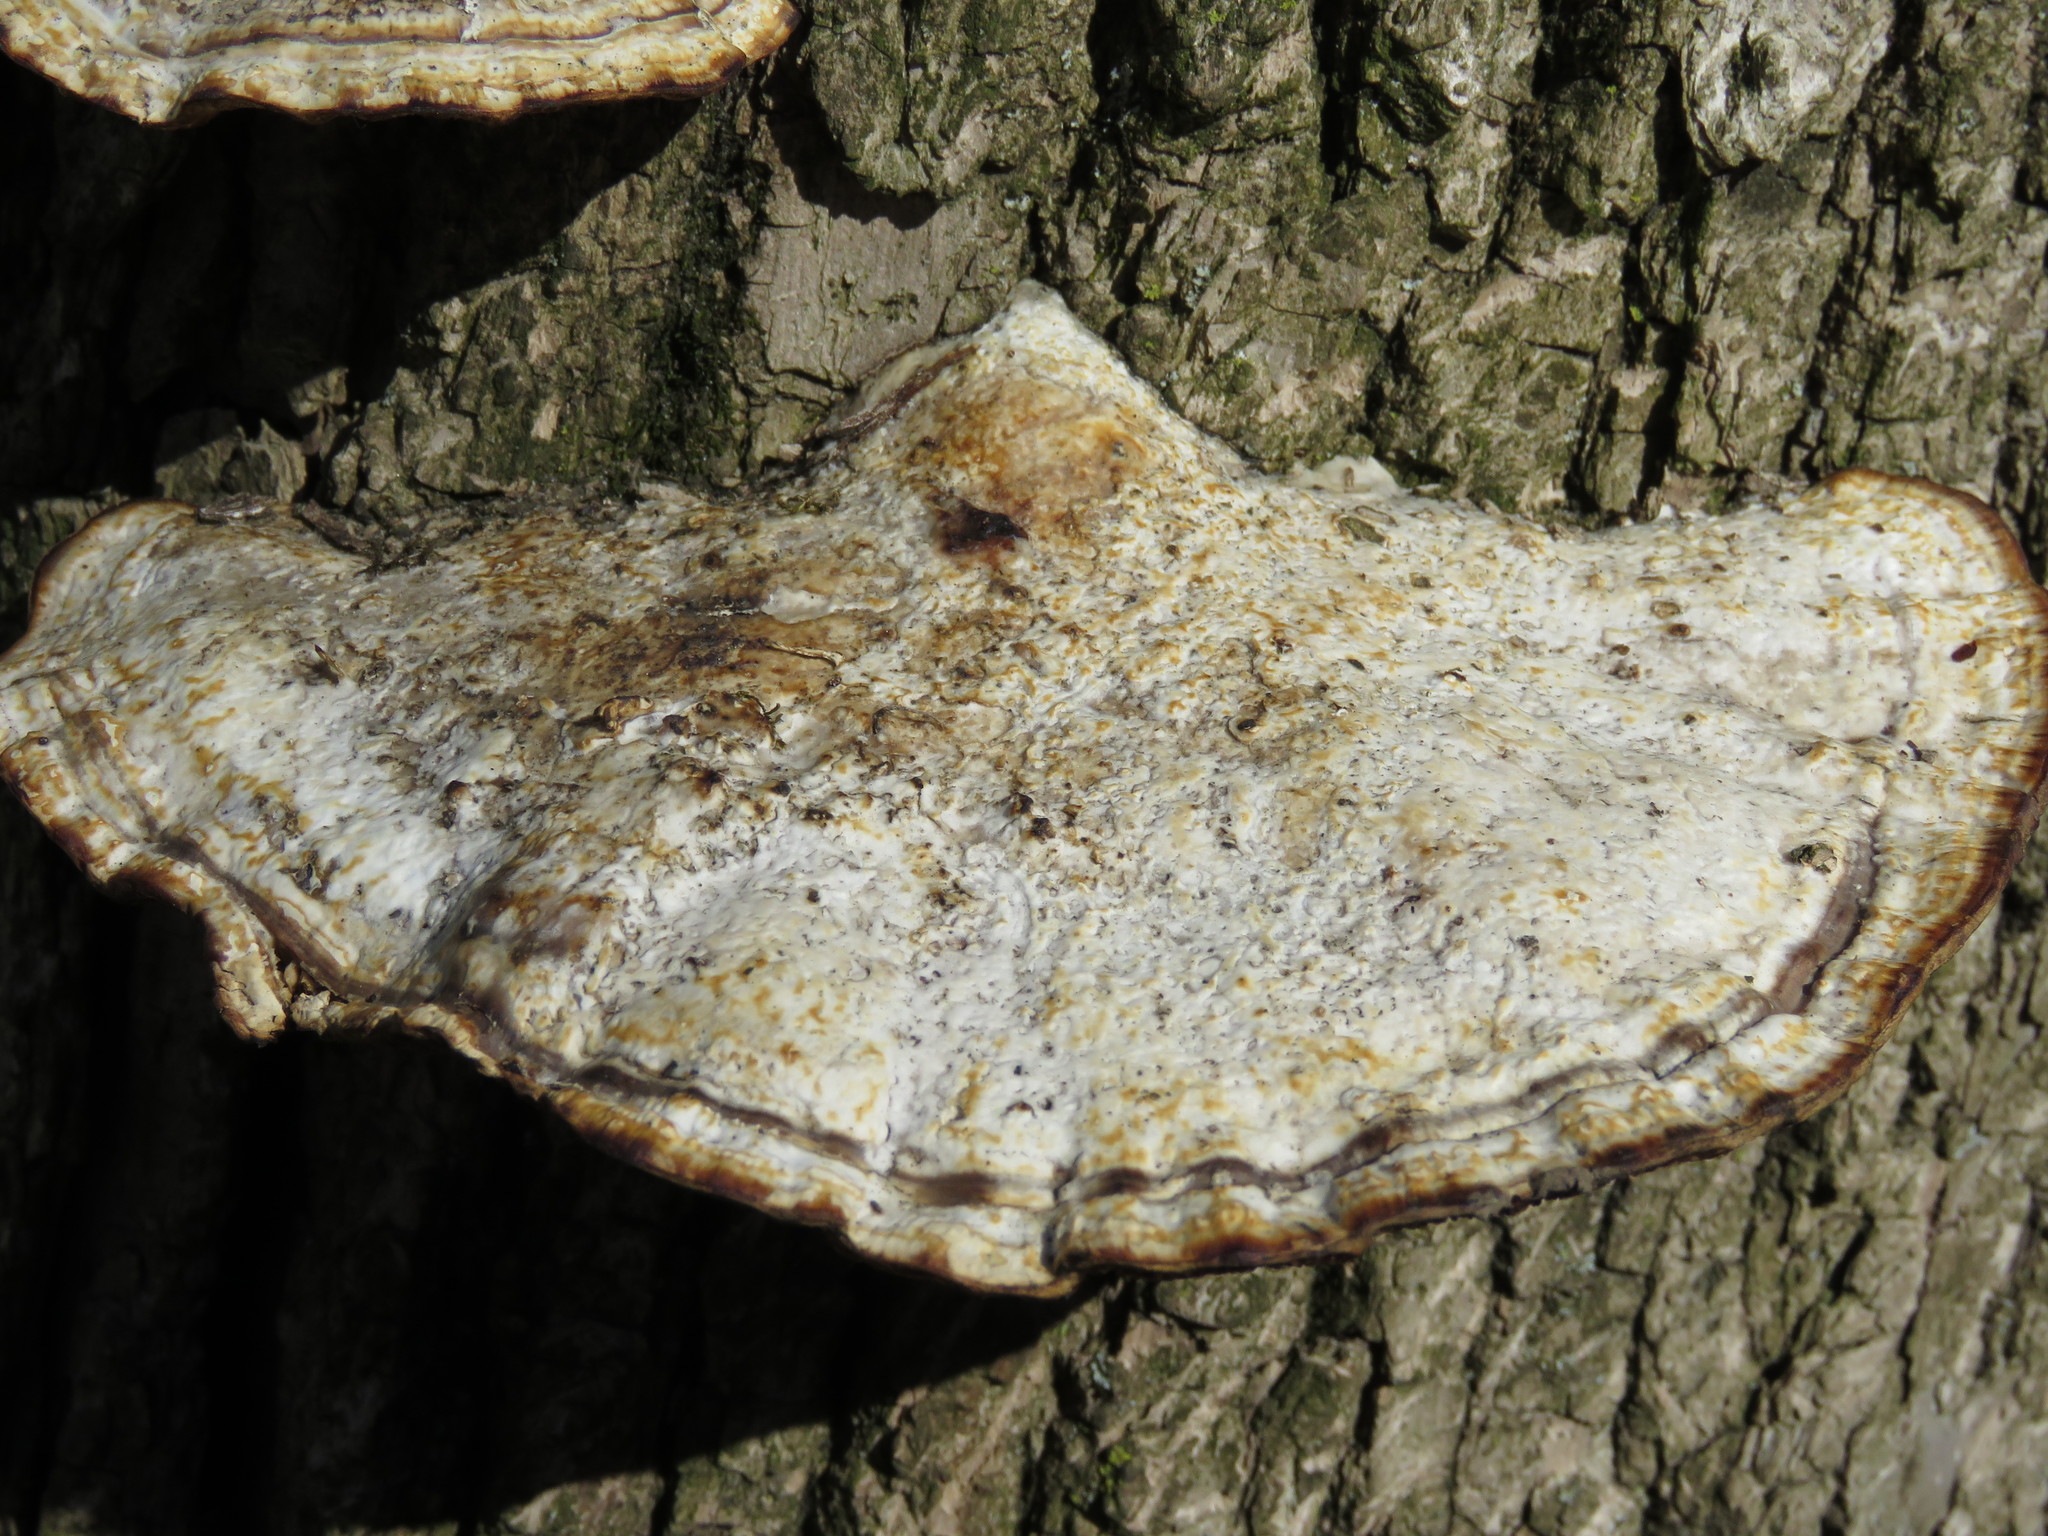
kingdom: Fungi
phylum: Basidiomycota
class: Agaricomycetes
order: Polyporales
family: Polyporaceae
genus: Daedaleopsis
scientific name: Daedaleopsis confragosa
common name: Blushing bracket
